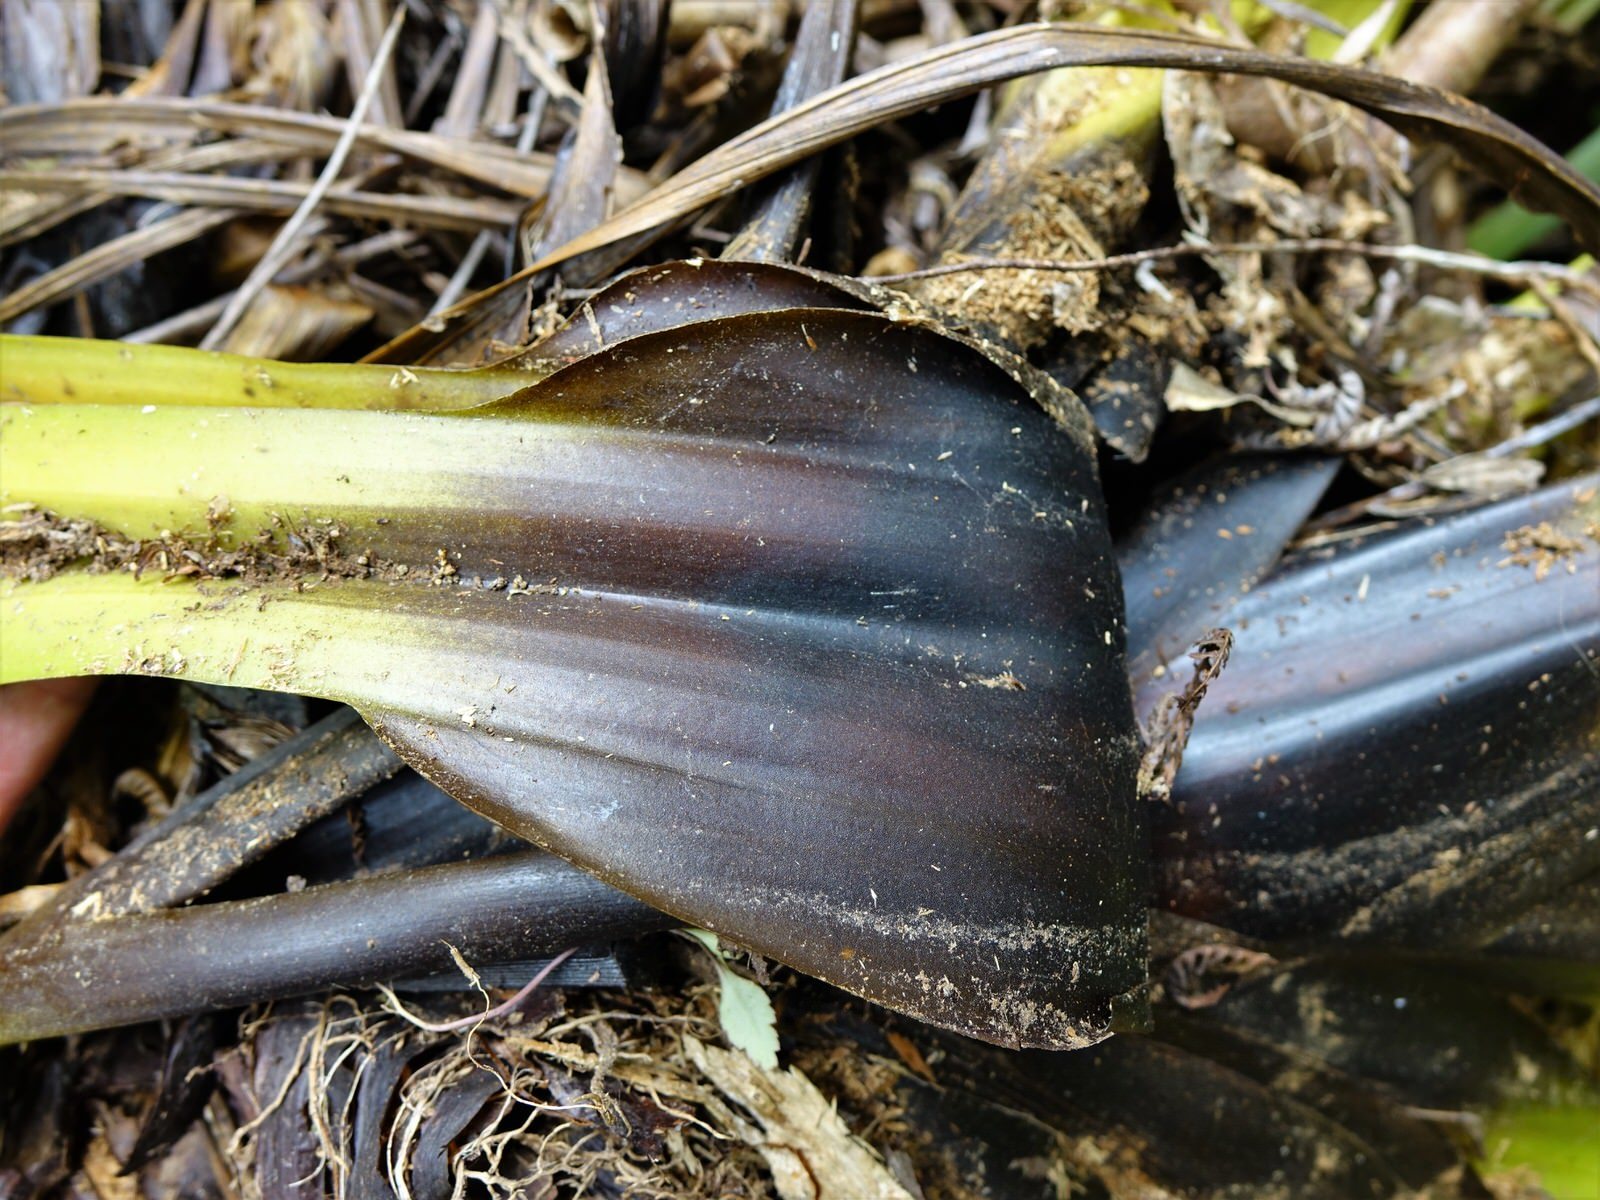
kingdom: Plantae
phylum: Tracheophyta
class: Liliopsida
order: Asparagales
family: Asteliaceae
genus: Astelia
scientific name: Astelia hastata
